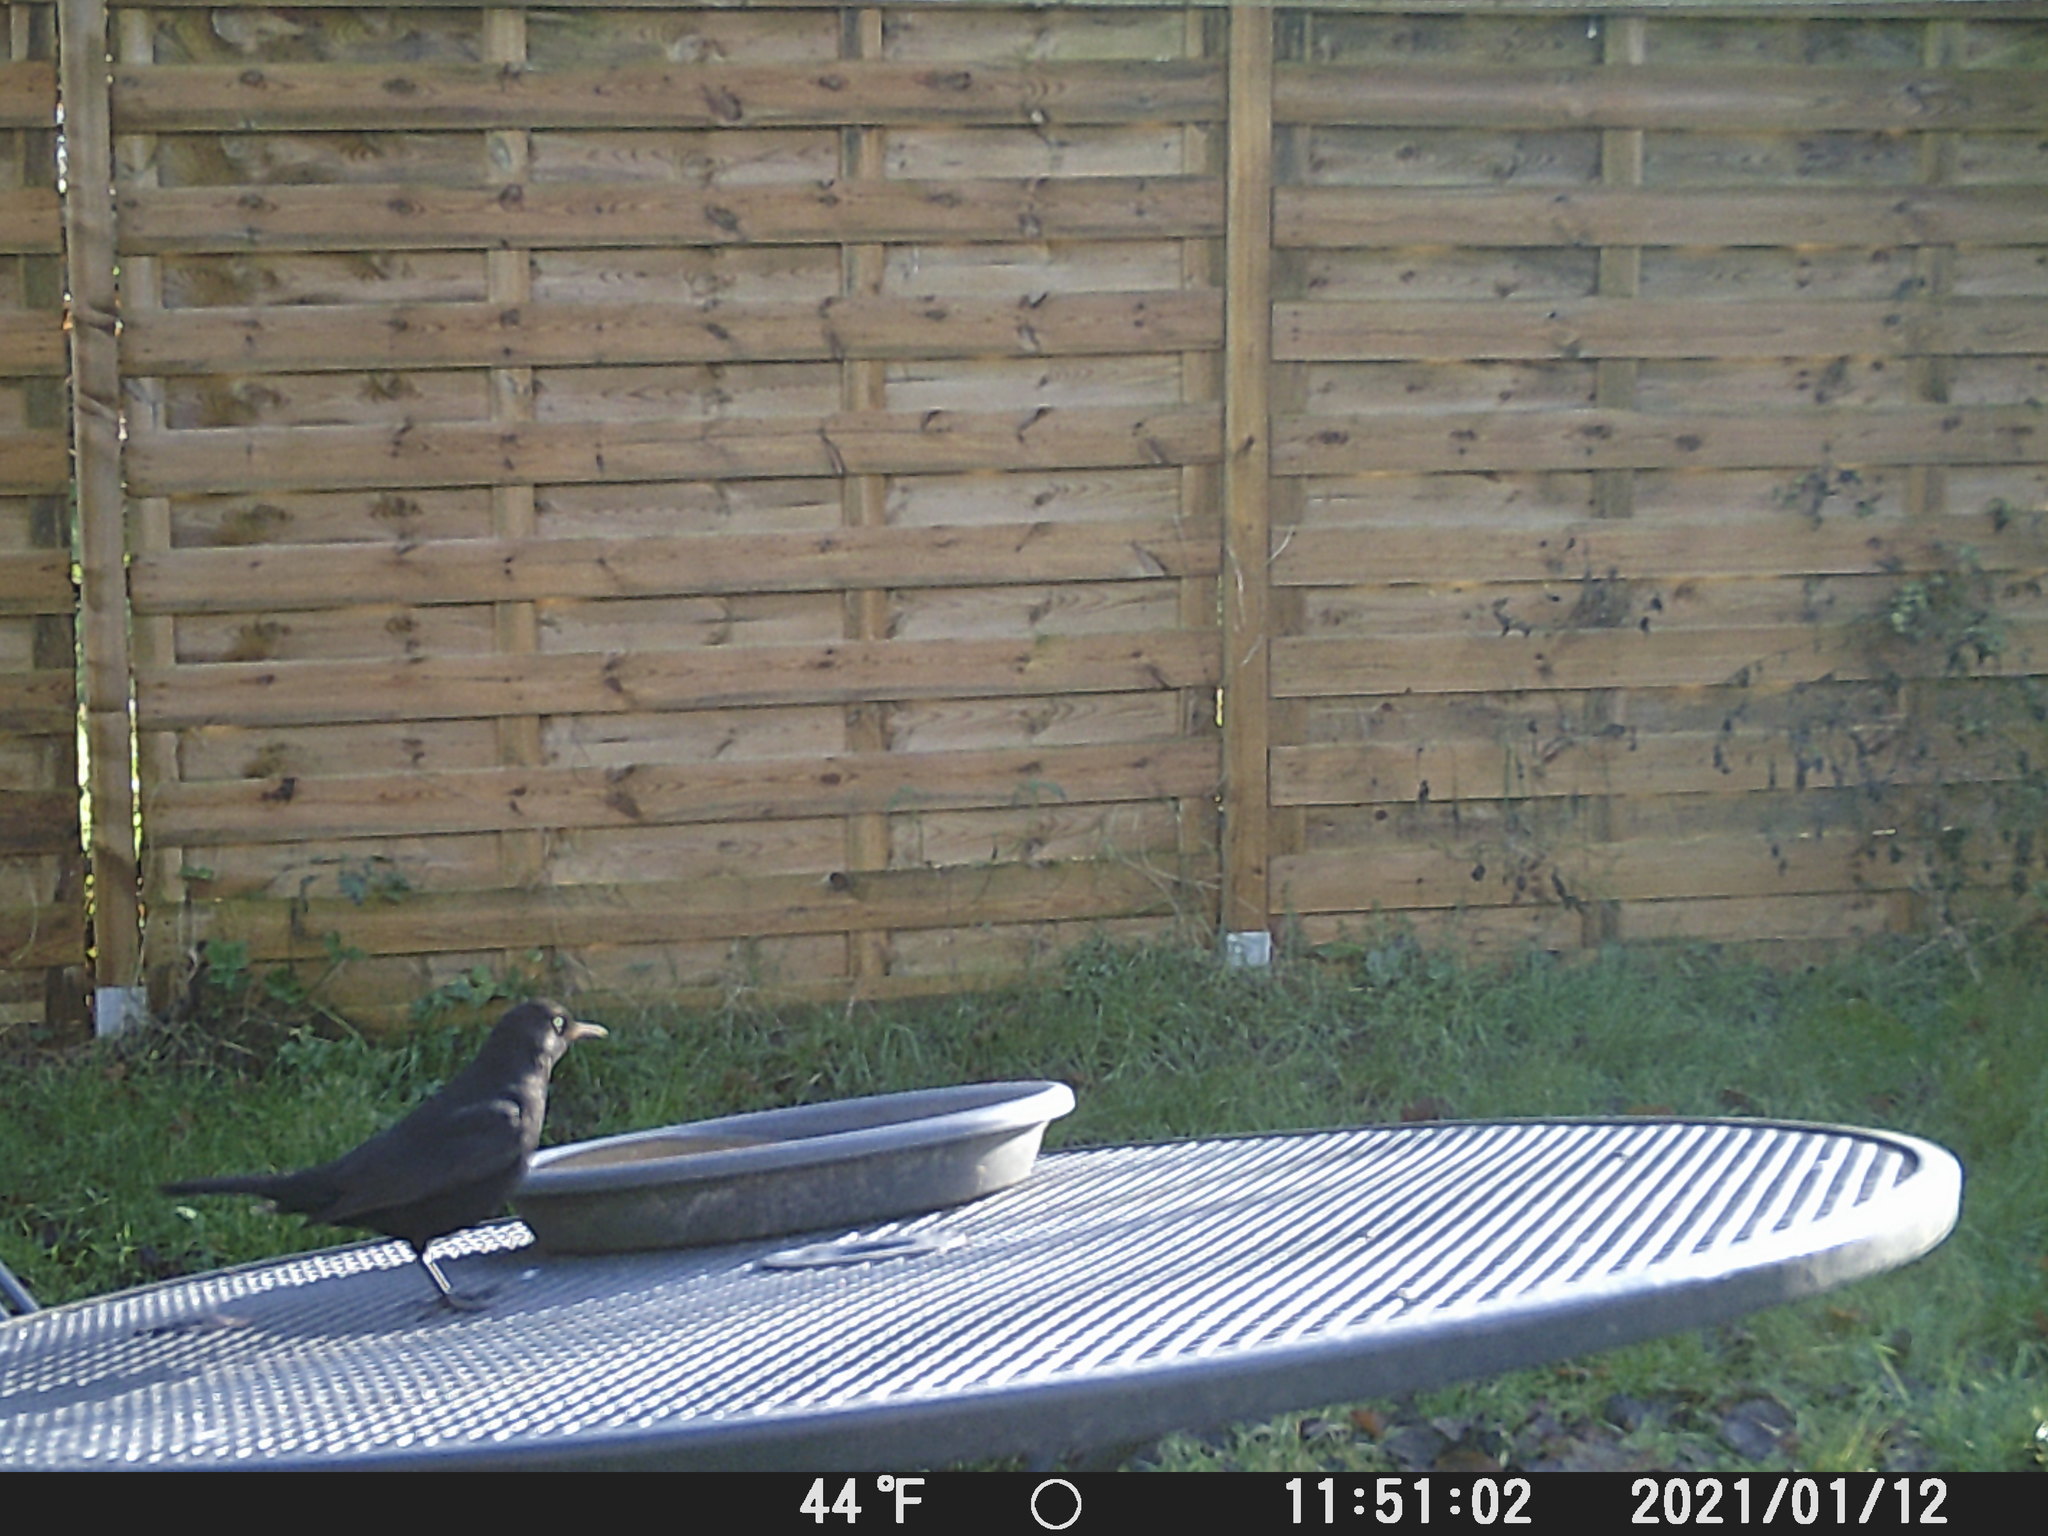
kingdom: Animalia
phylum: Chordata
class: Aves
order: Passeriformes
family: Turdidae
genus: Turdus
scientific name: Turdus merula
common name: Common blackbird
